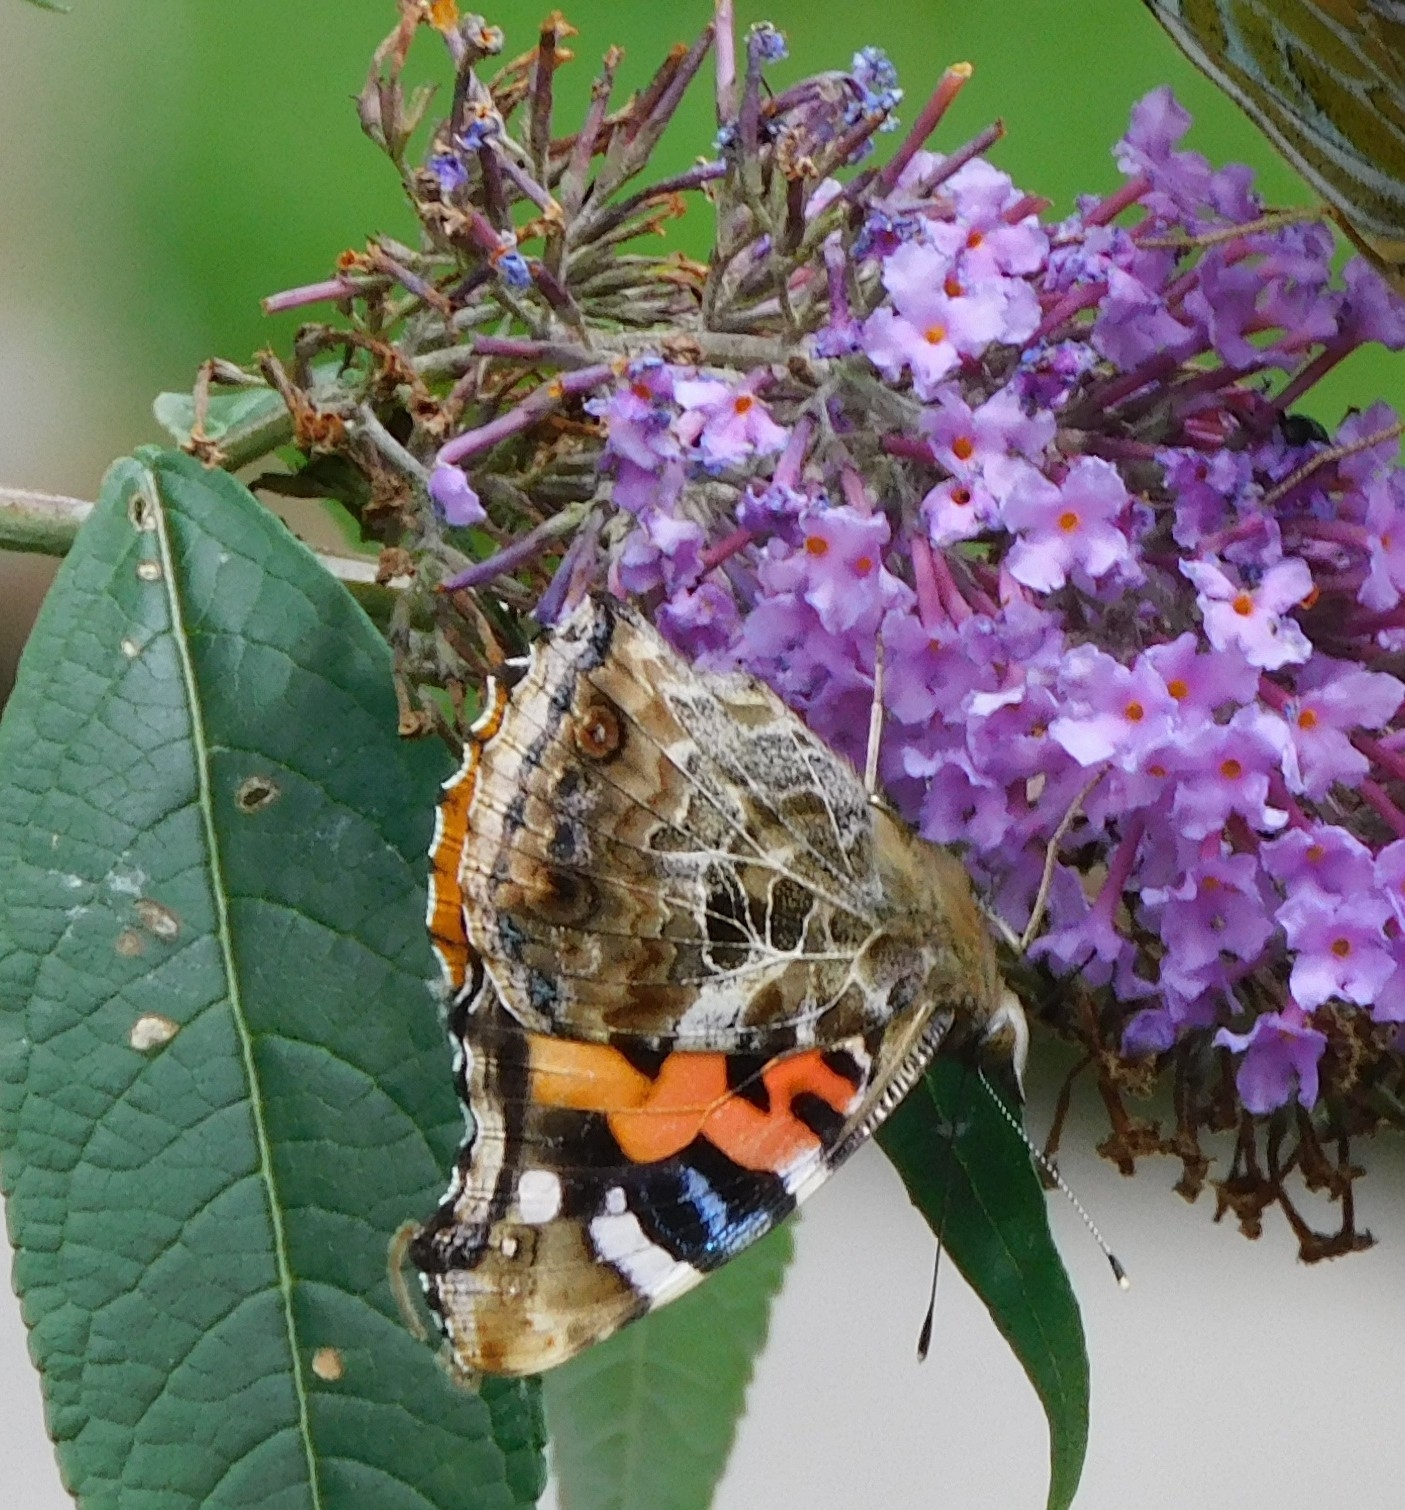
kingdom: Animalia
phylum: Arthropoda
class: Insecta
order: Lepidoptera
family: Nymphalidae
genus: Vanessa
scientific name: Vanessa indica
